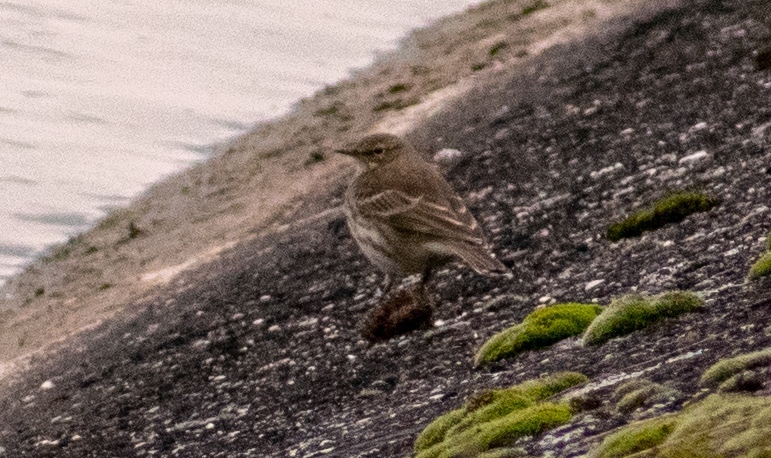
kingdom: Animalia
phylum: Chordata
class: Aves
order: Passeriformes
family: Motacillidae
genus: Anthus
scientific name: Anthus spinoletta
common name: Water pipit
